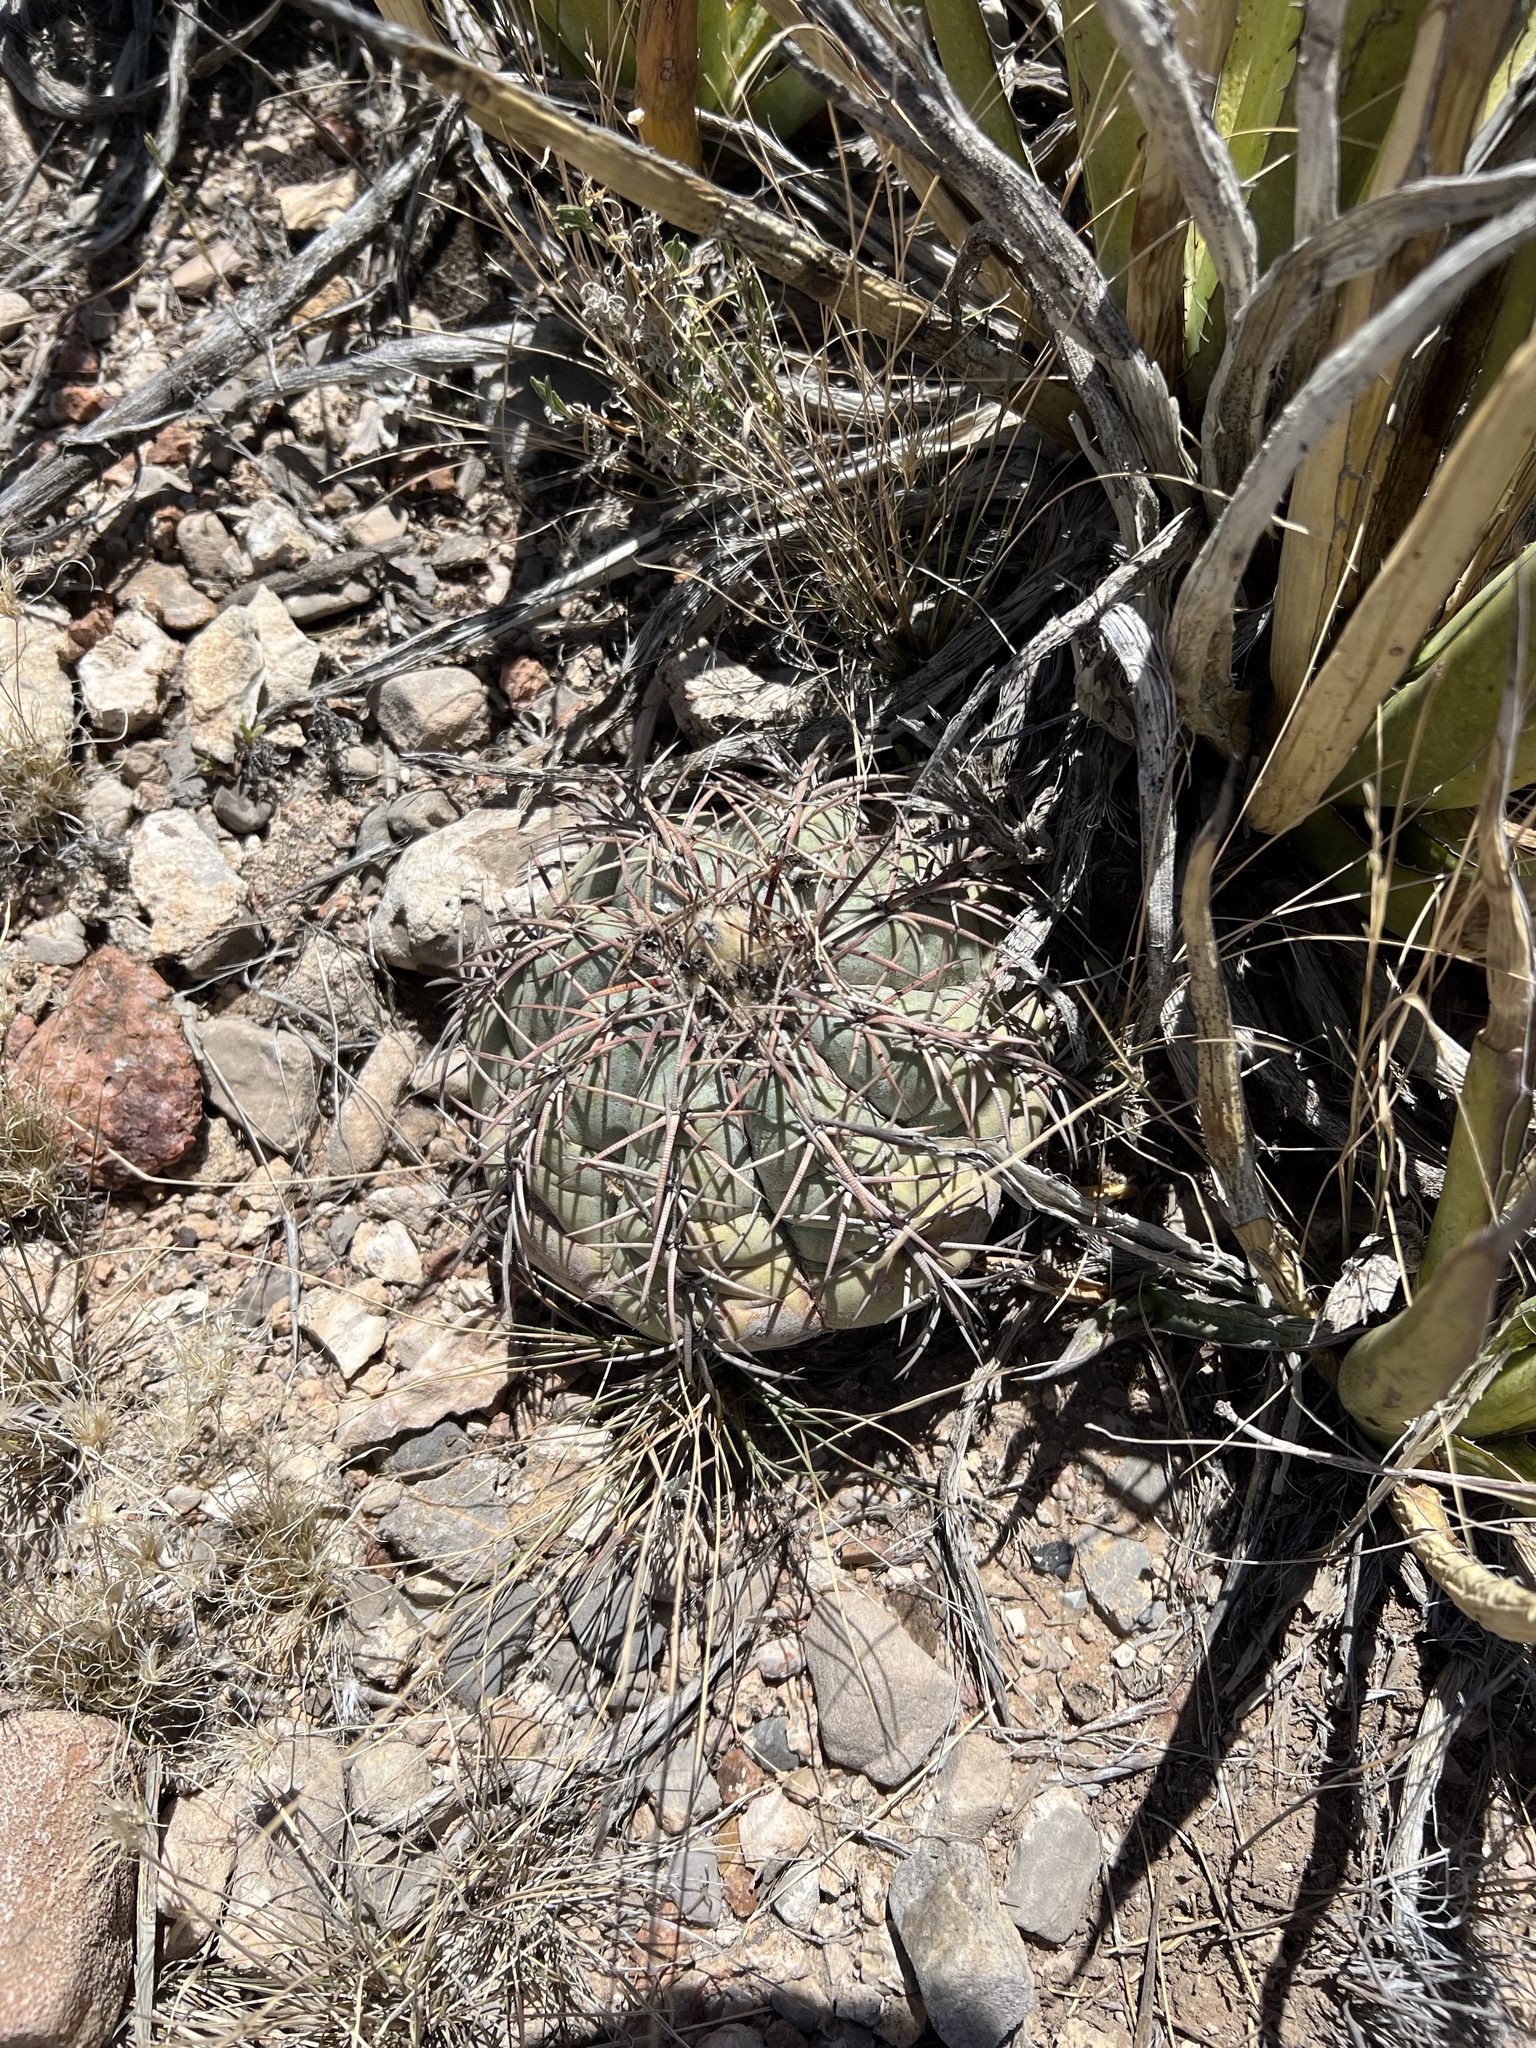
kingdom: Plantae
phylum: Tracheophyta
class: Magnoliopsida
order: Caryophyllales
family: Cactaceae
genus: Echinocactus
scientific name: Echinocactus horizonthalonius
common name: Devilshead
